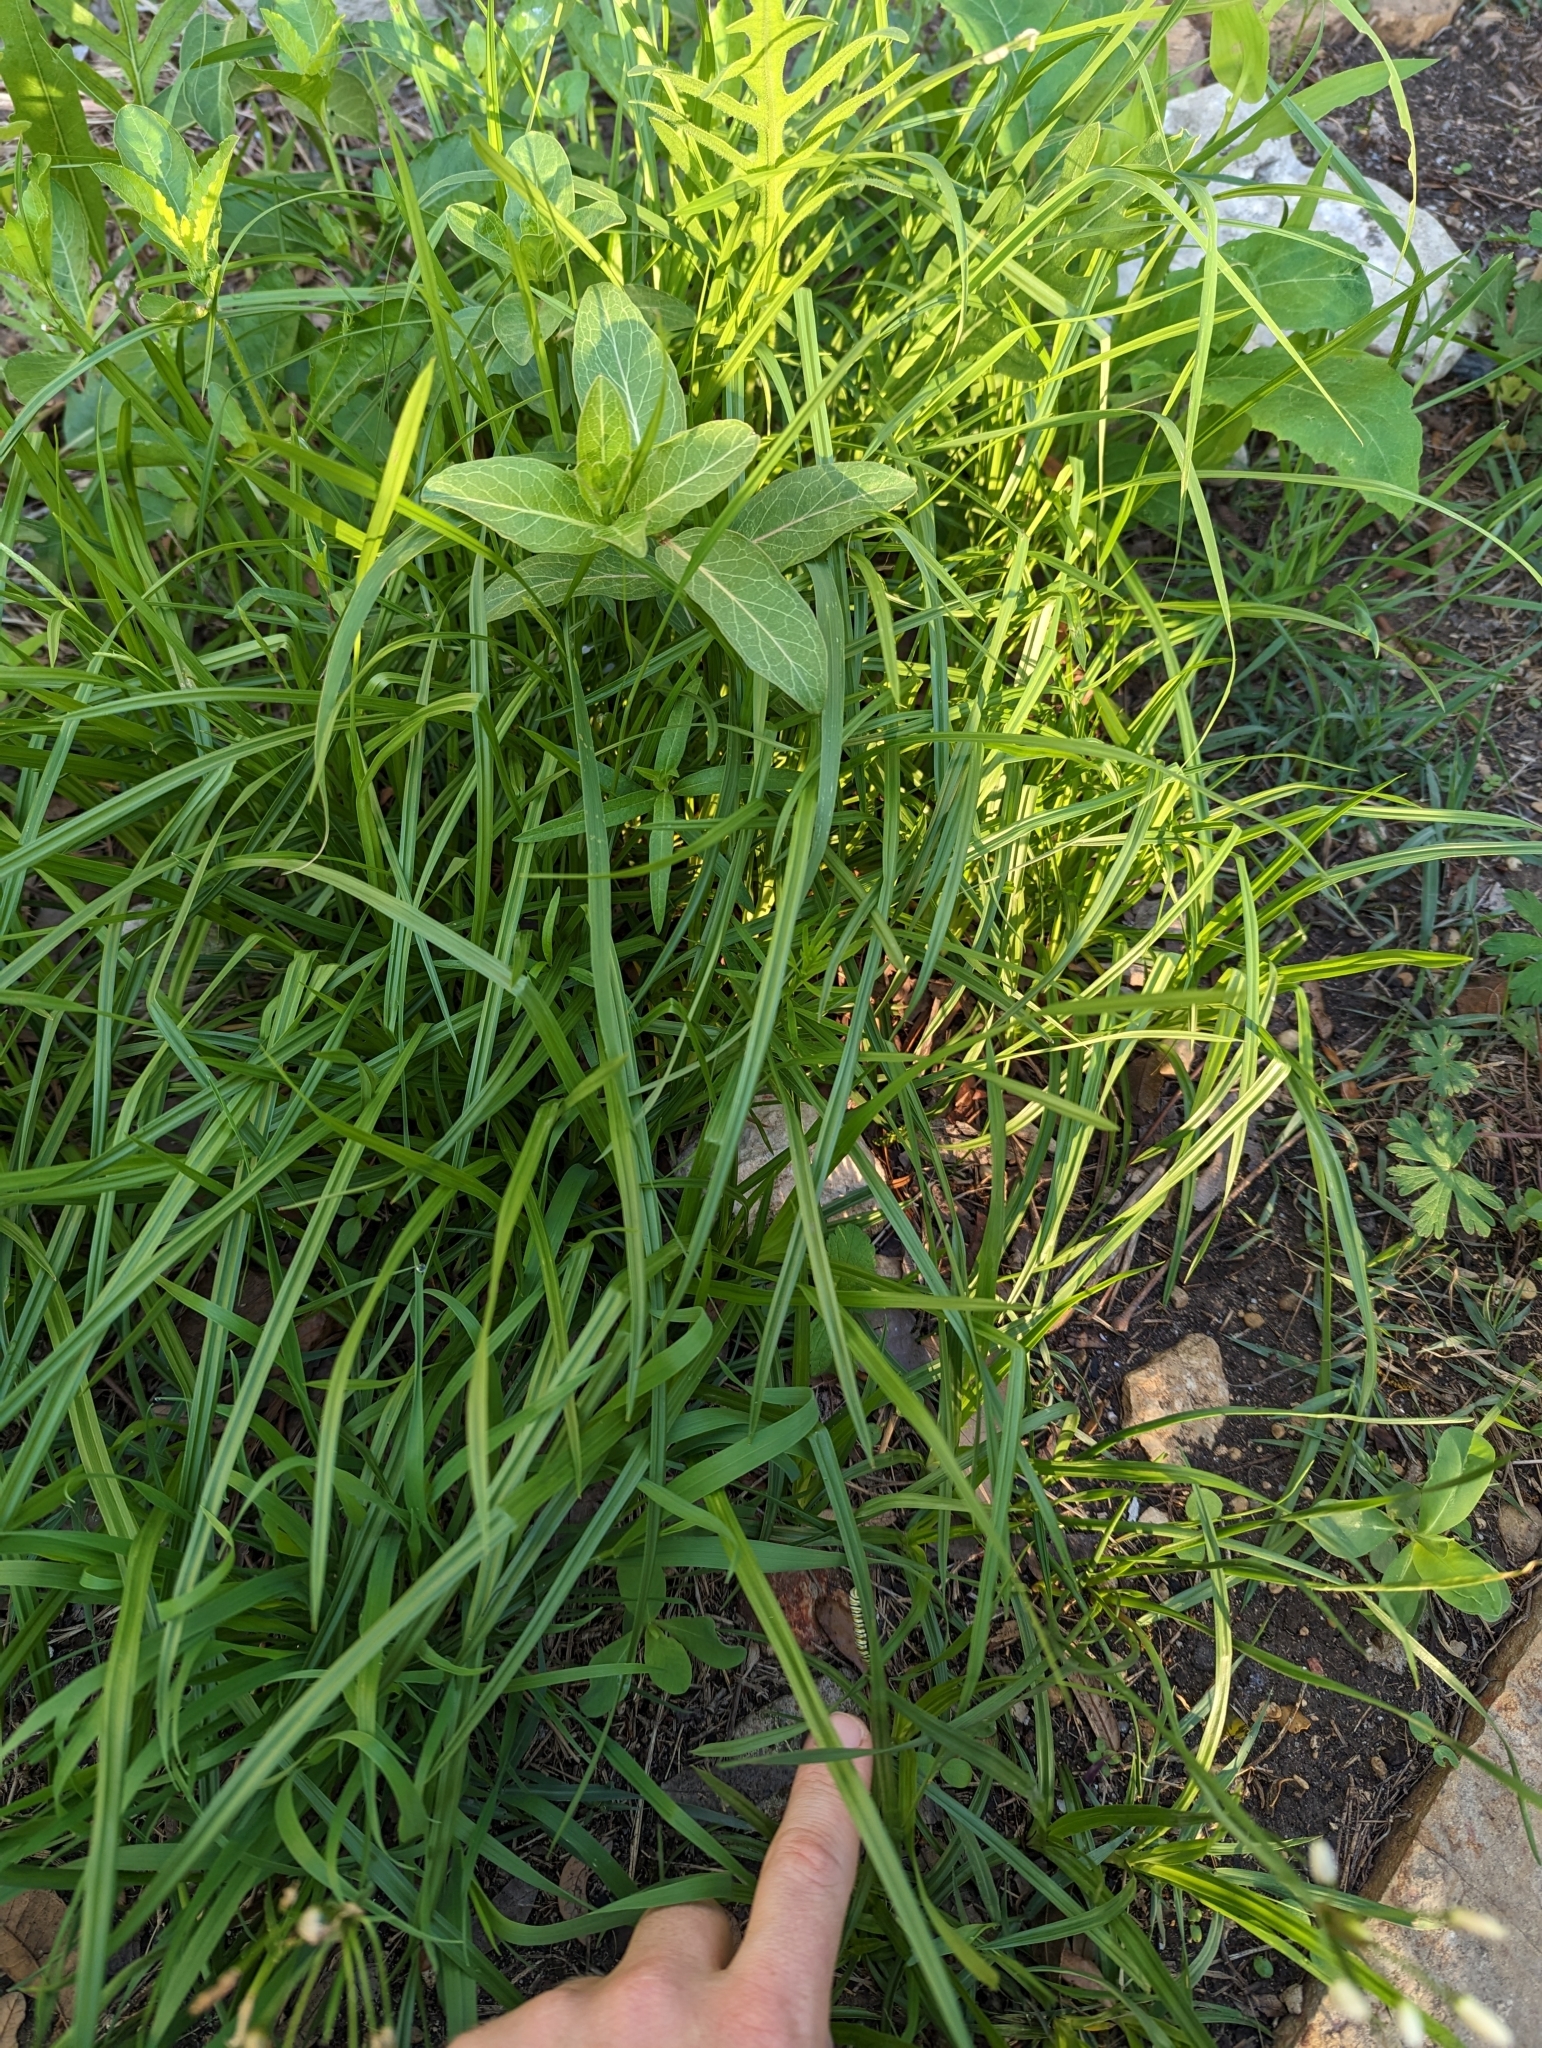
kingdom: Animalia
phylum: Arthropoda
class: Insecta
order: Lepidoptera
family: Nymphalidae
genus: Danaus
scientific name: Danaus plexippus
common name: Monarch
